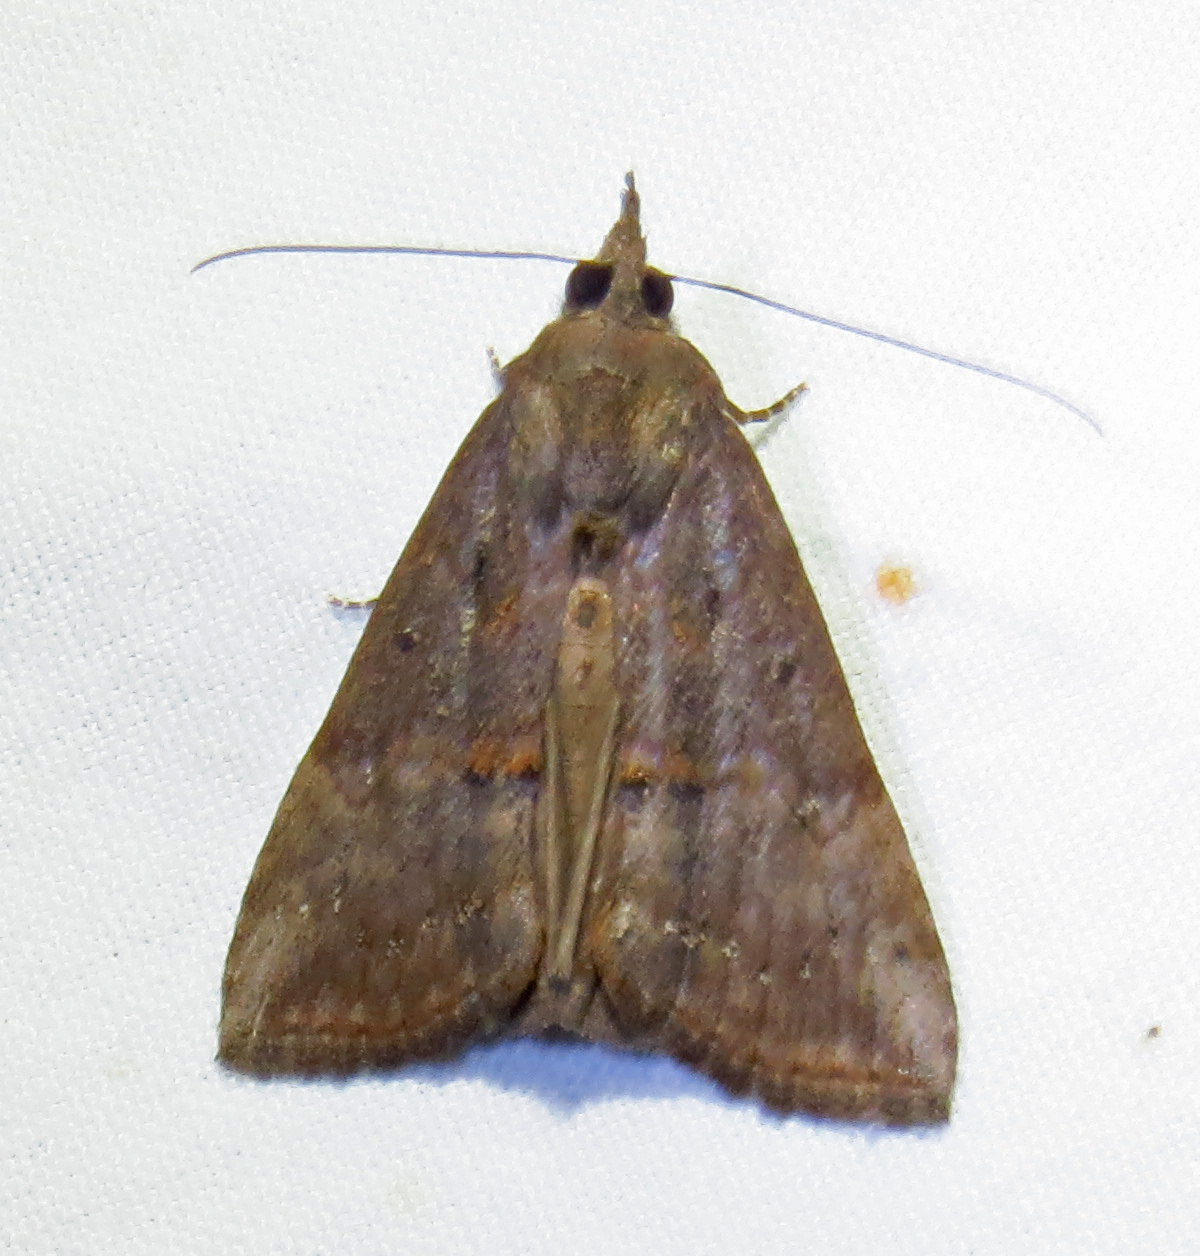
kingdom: Animalia
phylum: Arthropoda
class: Insecta
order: Lepidoptera
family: Erebidae
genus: Hypena
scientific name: Hypena scabra
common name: Green cloverworm
